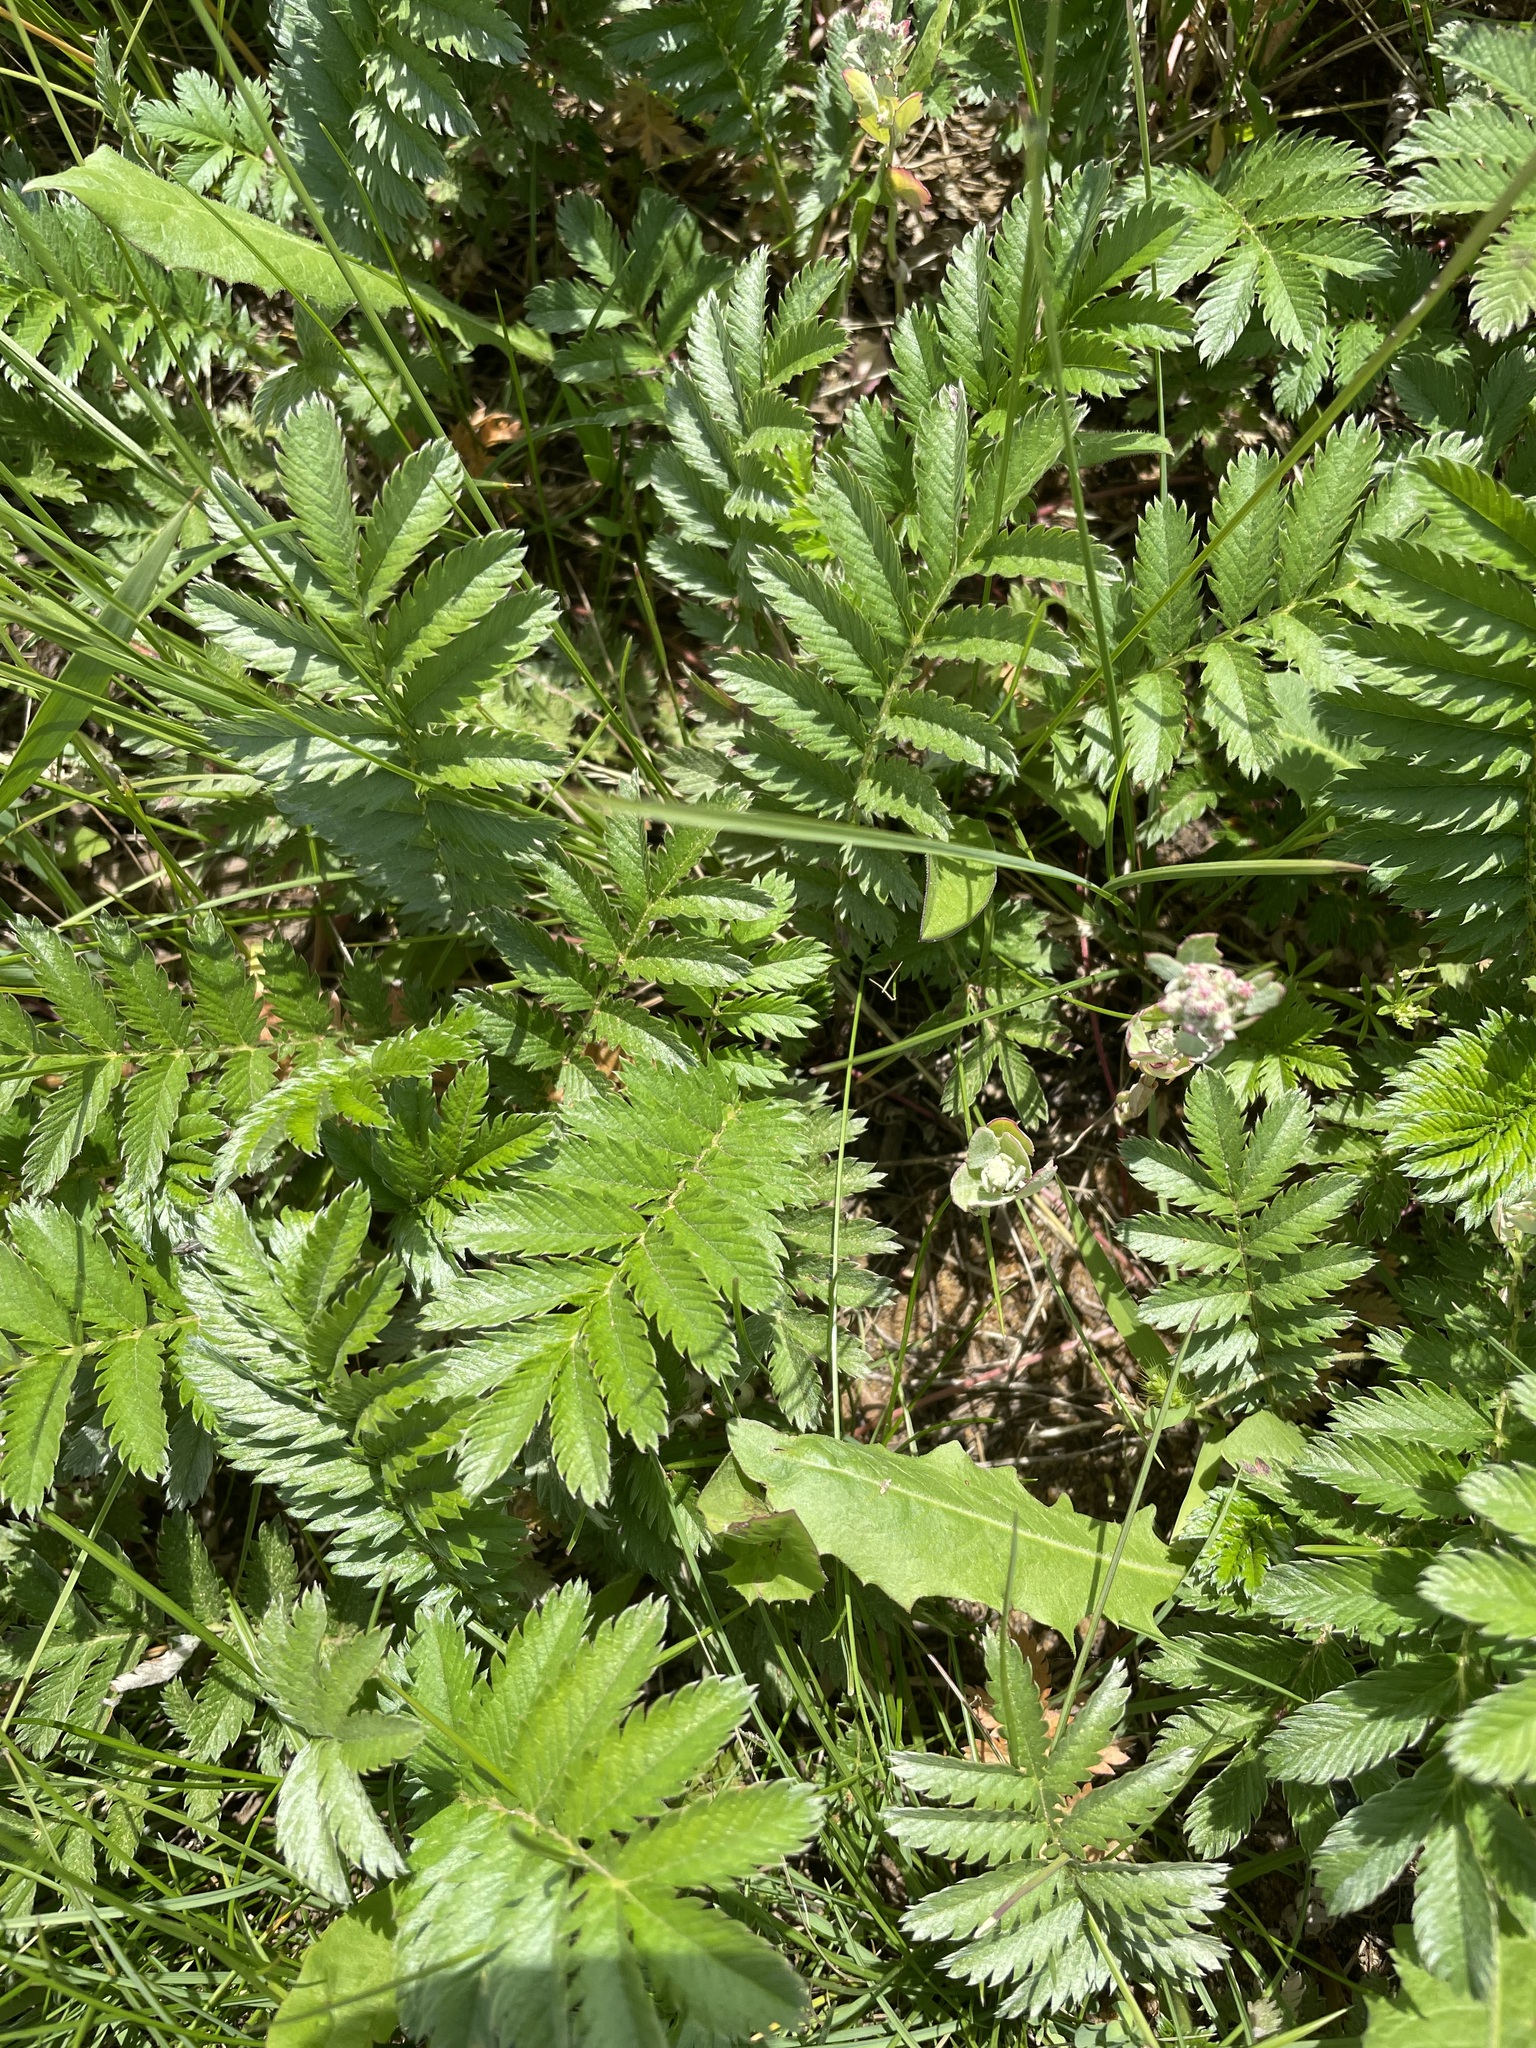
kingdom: Plantae
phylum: Tracheophyta
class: Magnoliopsida
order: Rosales
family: Rosaceae
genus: Argentina
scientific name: Argentina anserina
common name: Common silverweed
